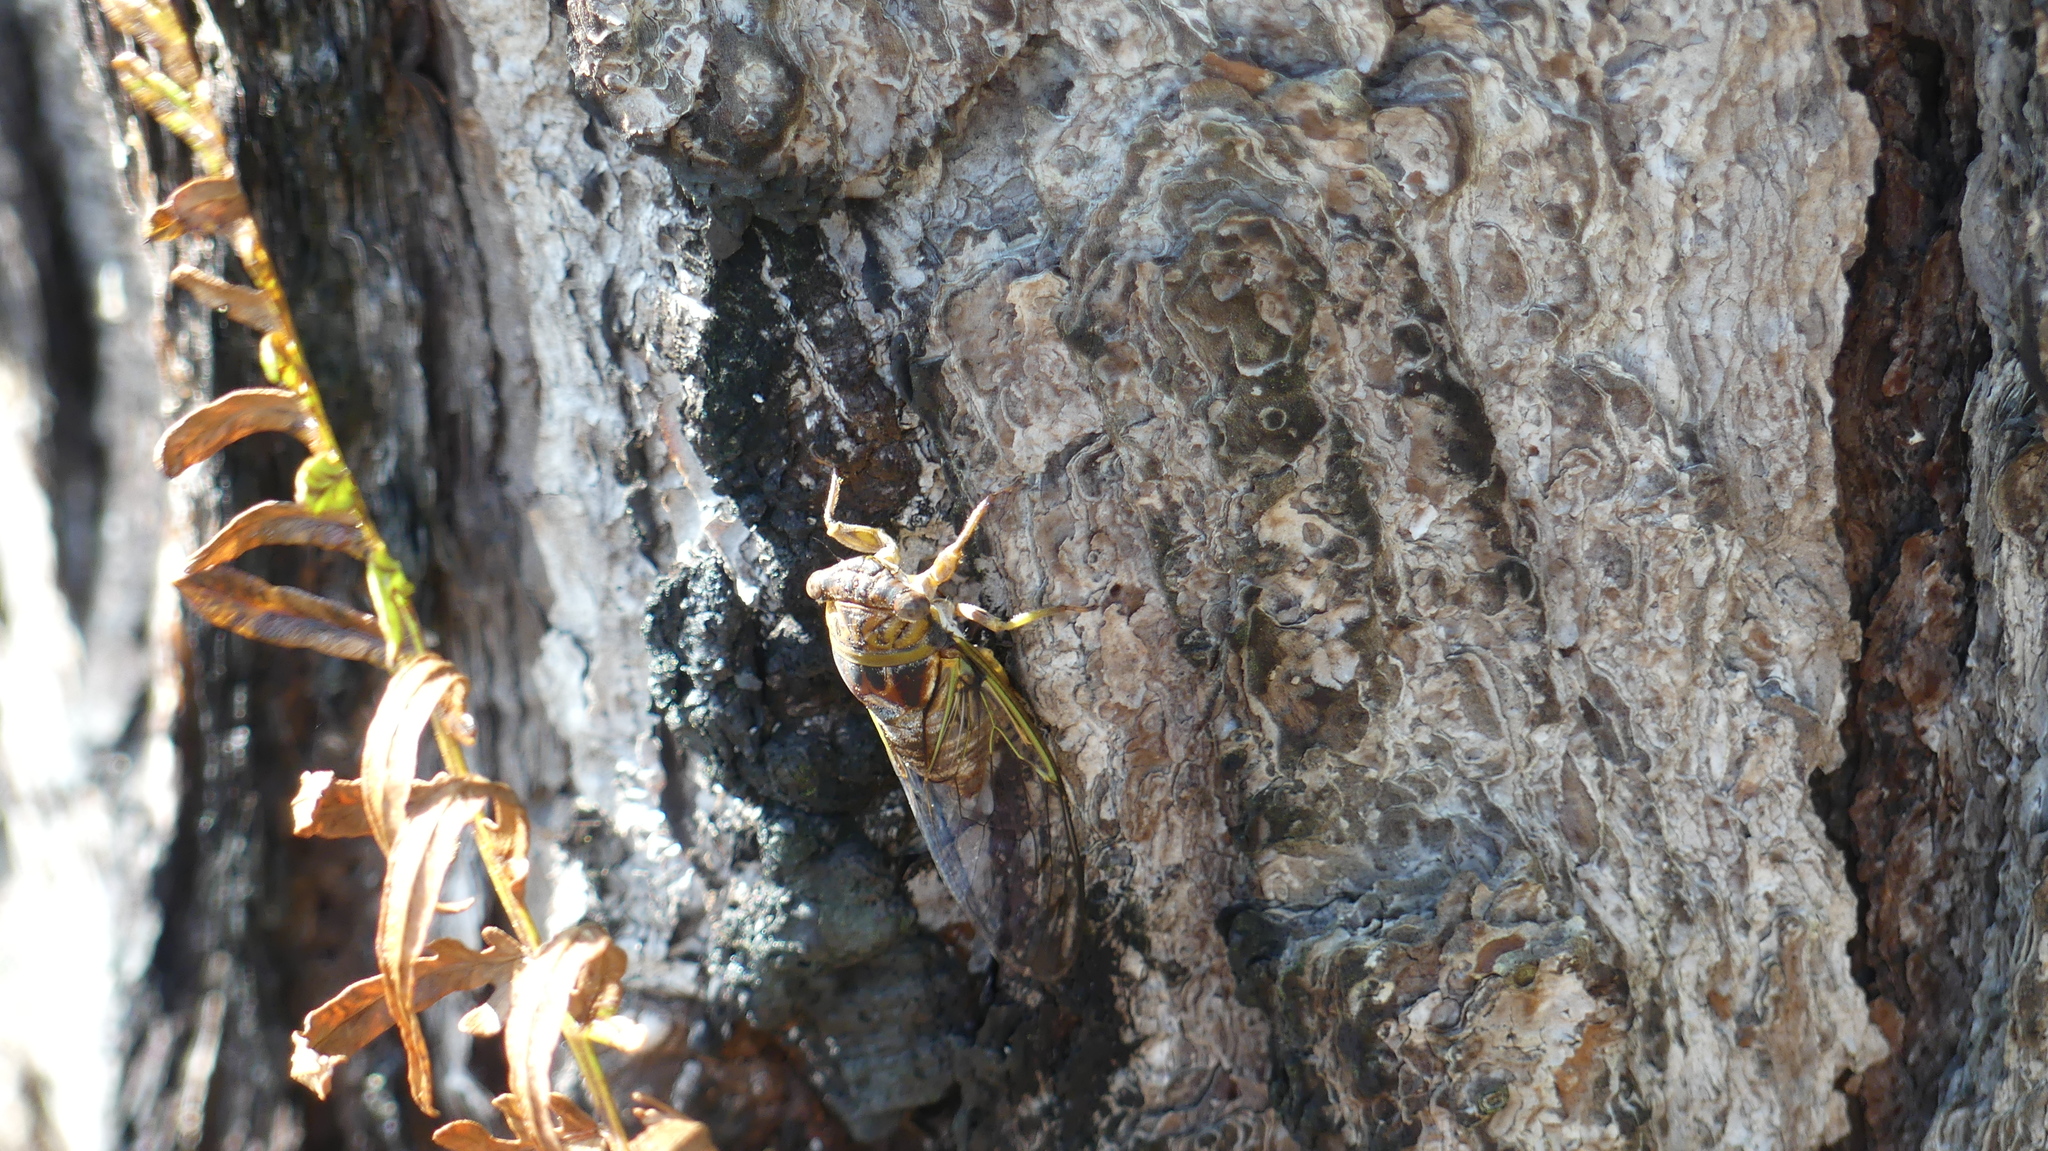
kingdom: Animalia
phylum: Arthropoda
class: Insecta
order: Hemiptera
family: Cicadidae
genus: Diceroprocta
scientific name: Diceroprocta olympusa
